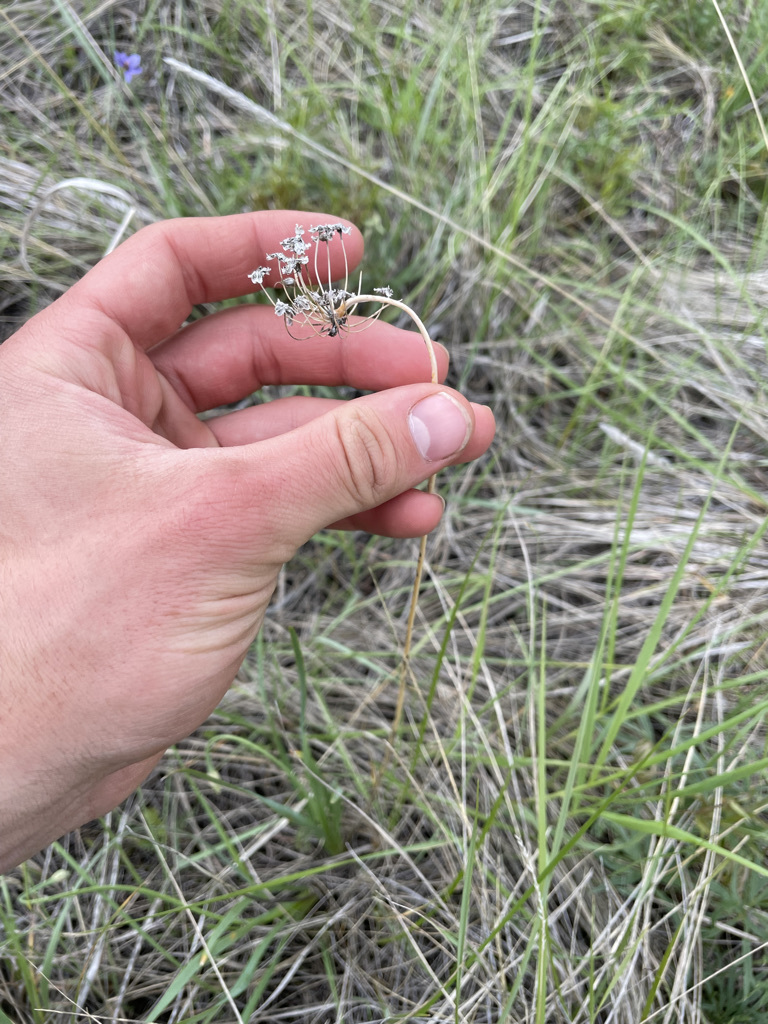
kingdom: Plantae
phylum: Tracheophyta
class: Liliopsida
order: Asparagales
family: Amaryllidaceae
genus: Allium
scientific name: Allium cernuum
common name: Nodding onion
